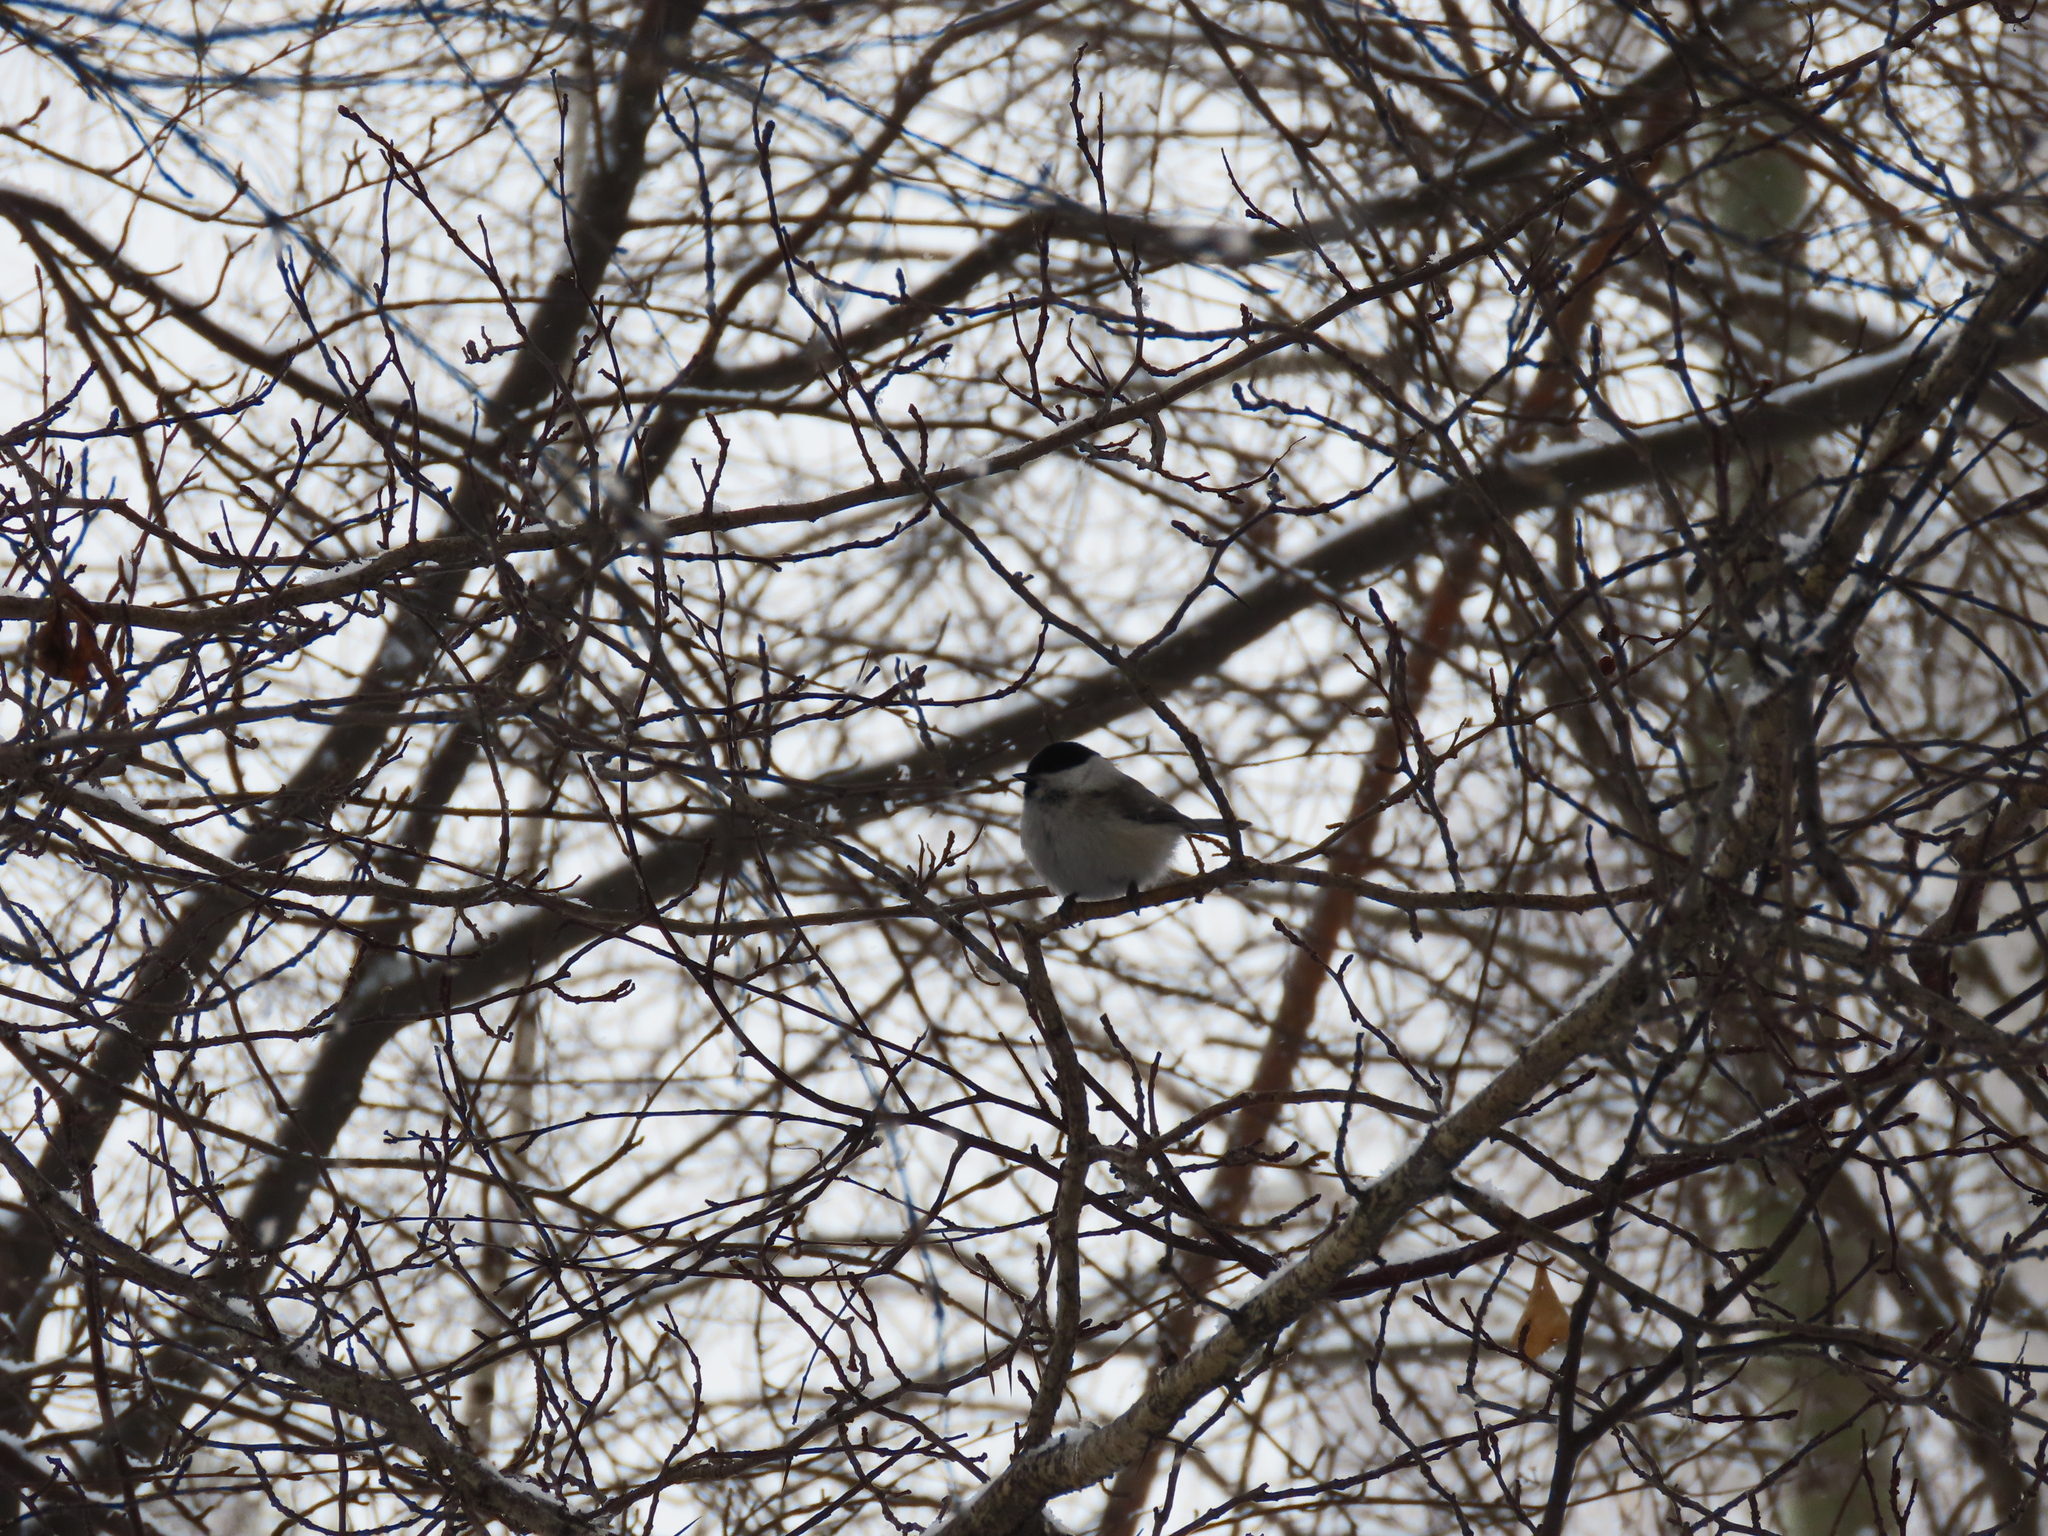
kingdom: Animalia
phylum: Chordata
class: Aves
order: Passeriformes
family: Paridae
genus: Poecile
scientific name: Poecile montanus
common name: Willow tit
